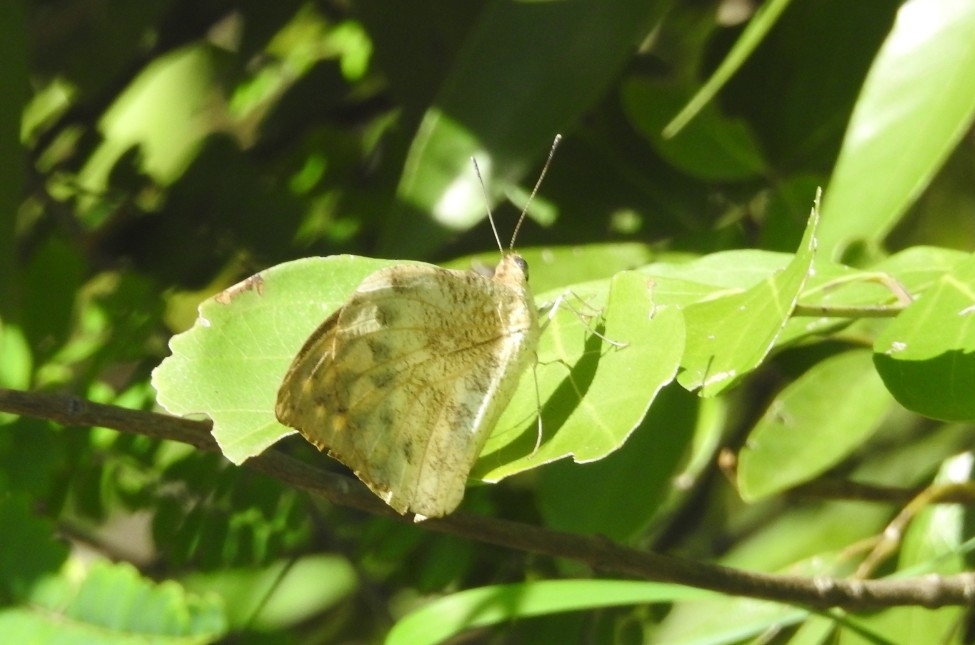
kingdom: Animalia
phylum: Arthropoda
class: Insecta
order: Lepidoptera
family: Pieridae
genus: Hebomoia
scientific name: Hebomoia glaucippe
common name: Great orange tip
